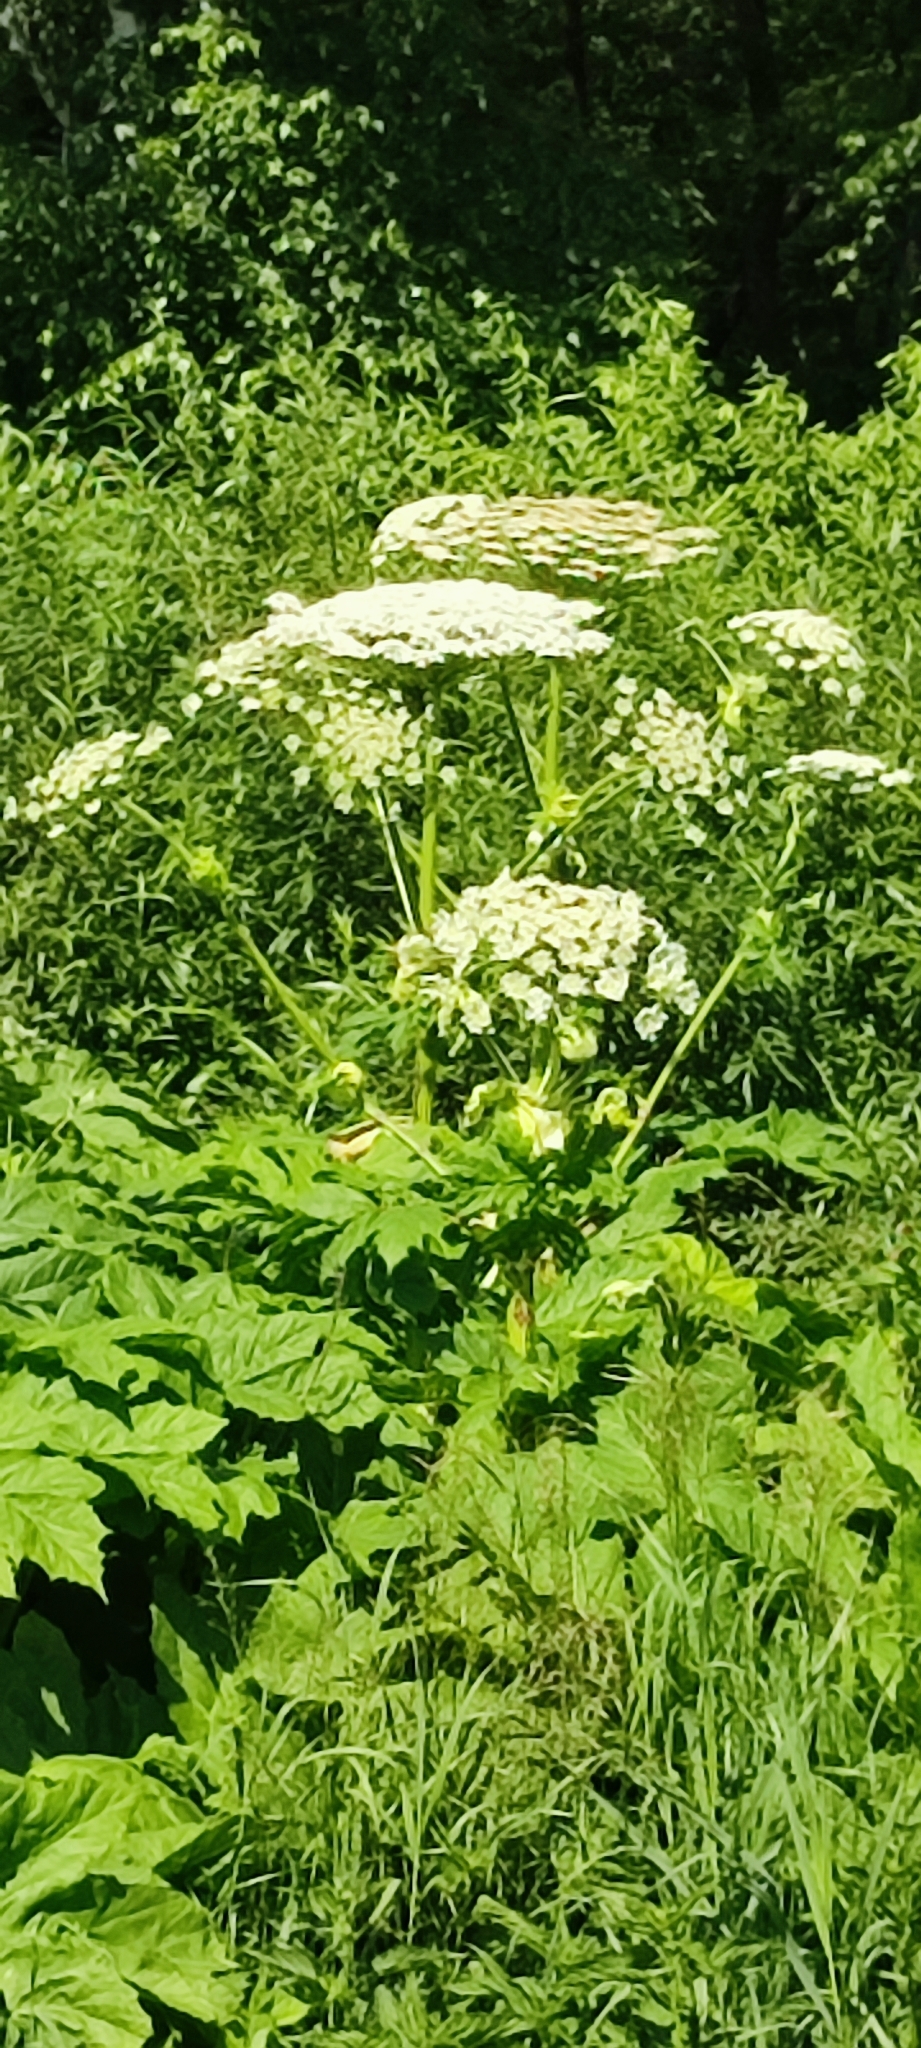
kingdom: Plantae
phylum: Tracheophyta
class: Magnoliopsida
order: Apiales
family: Apiaceae
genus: Heracleum
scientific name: Heracleum sosnowskyi
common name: Sosnowsky's hogweed
